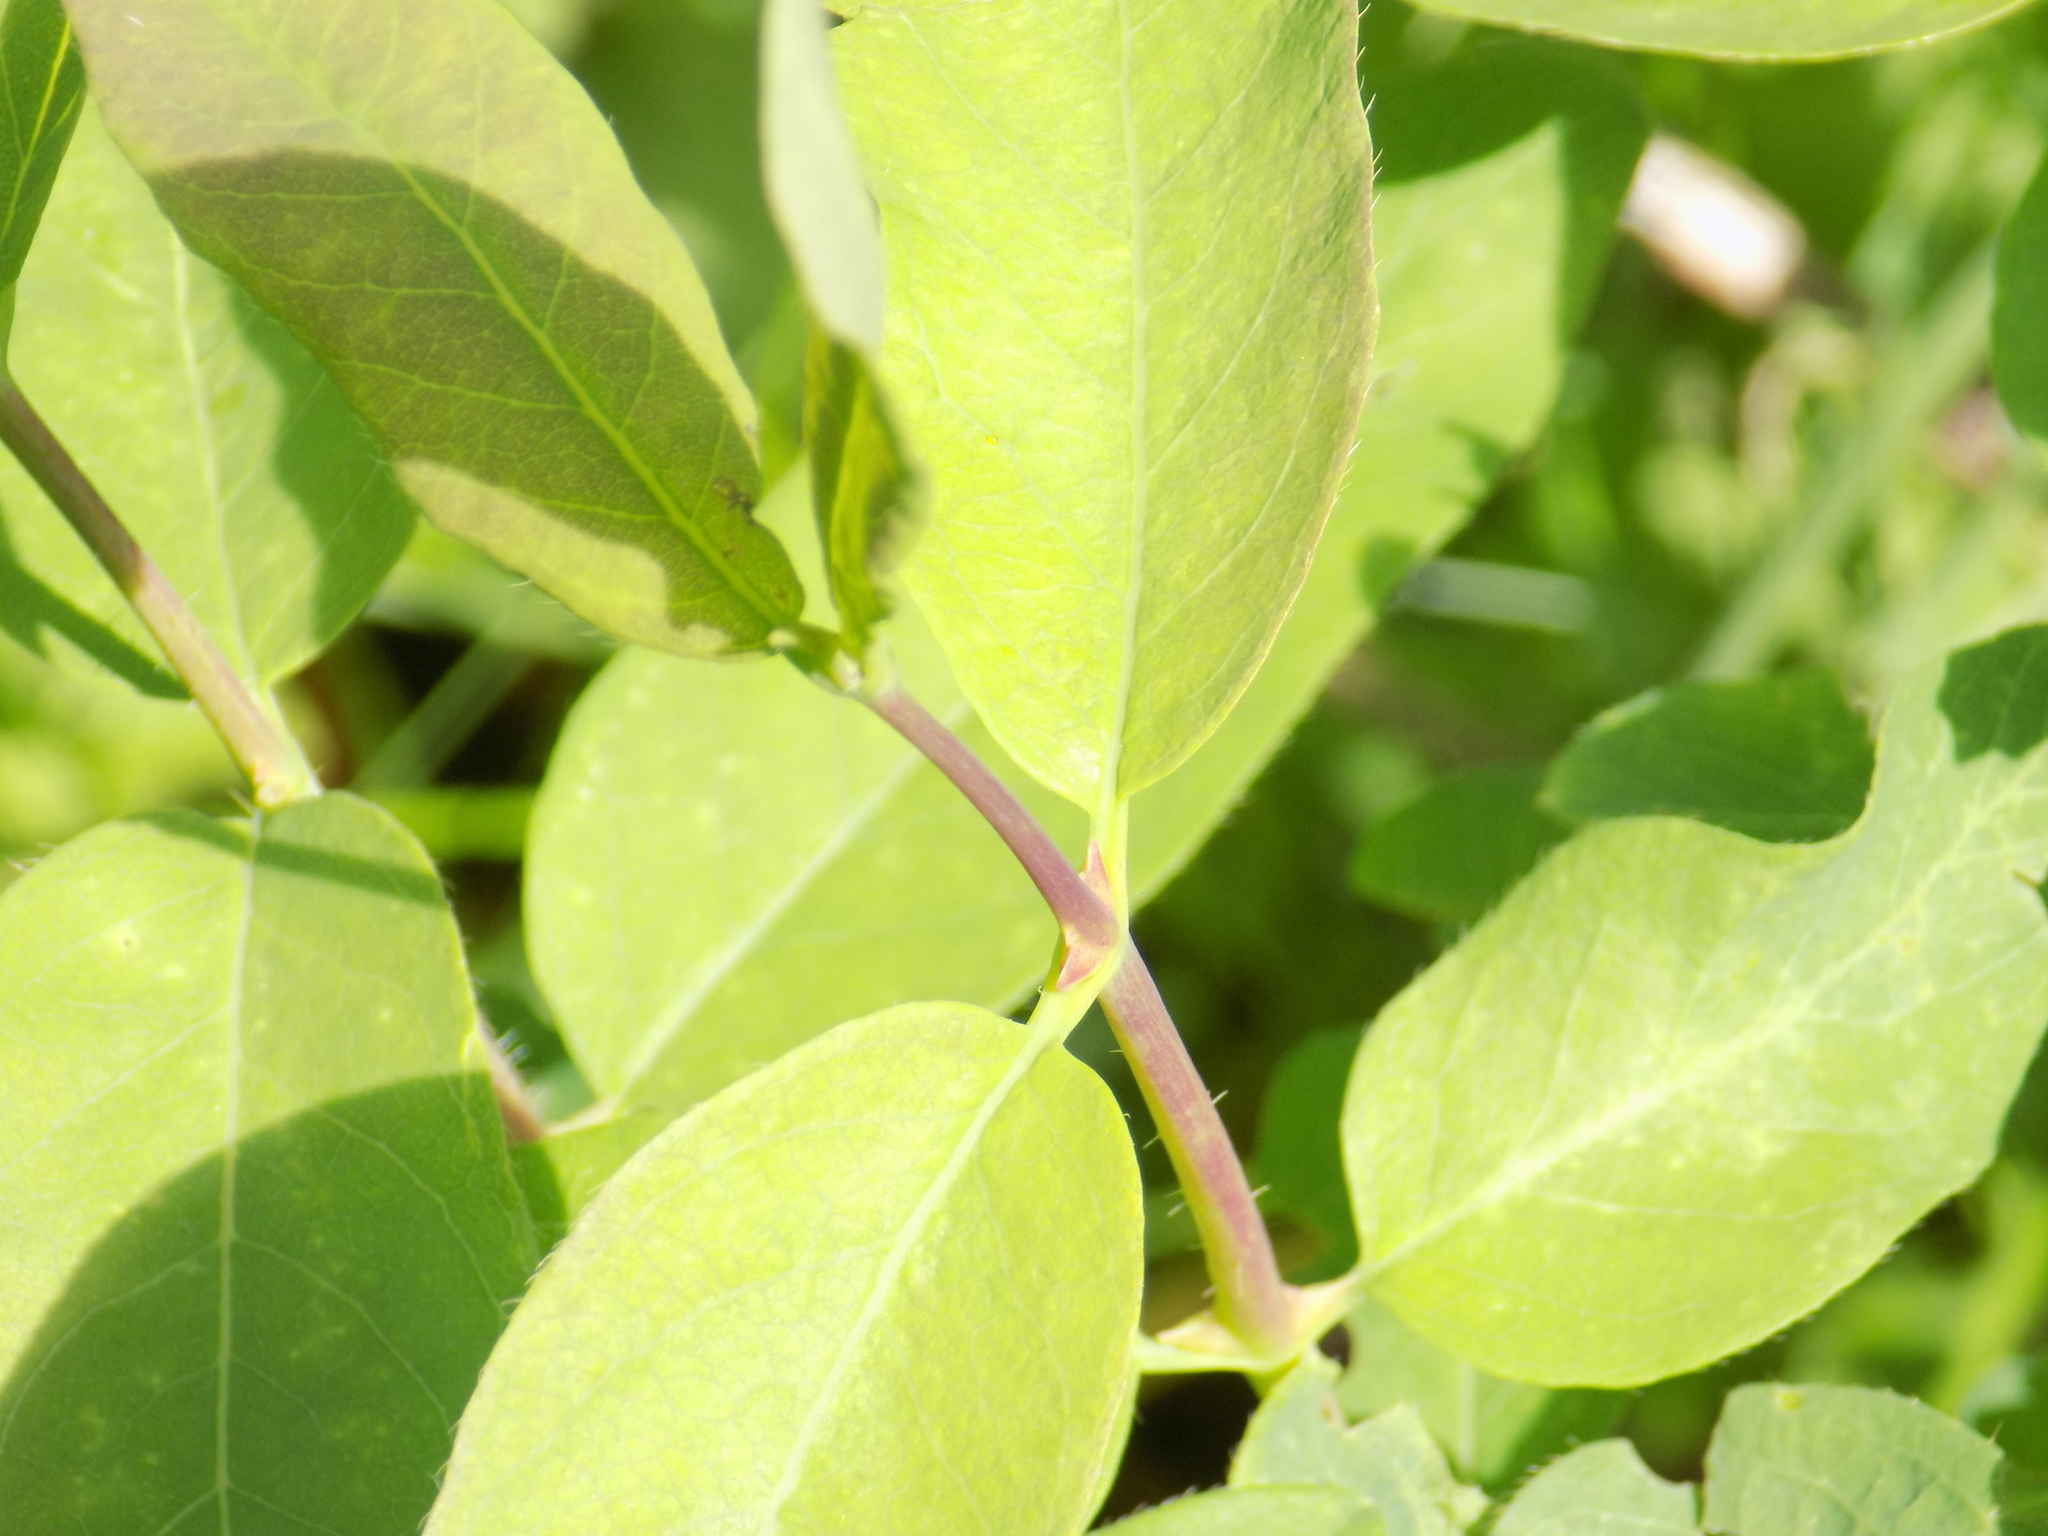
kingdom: Plantae
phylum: Tracheophyta
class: Magnoliopsida
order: Dipsacales
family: Caprifoliaceae
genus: Lonicera
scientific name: Lonicera caerulea
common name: Blue honeysuckle
